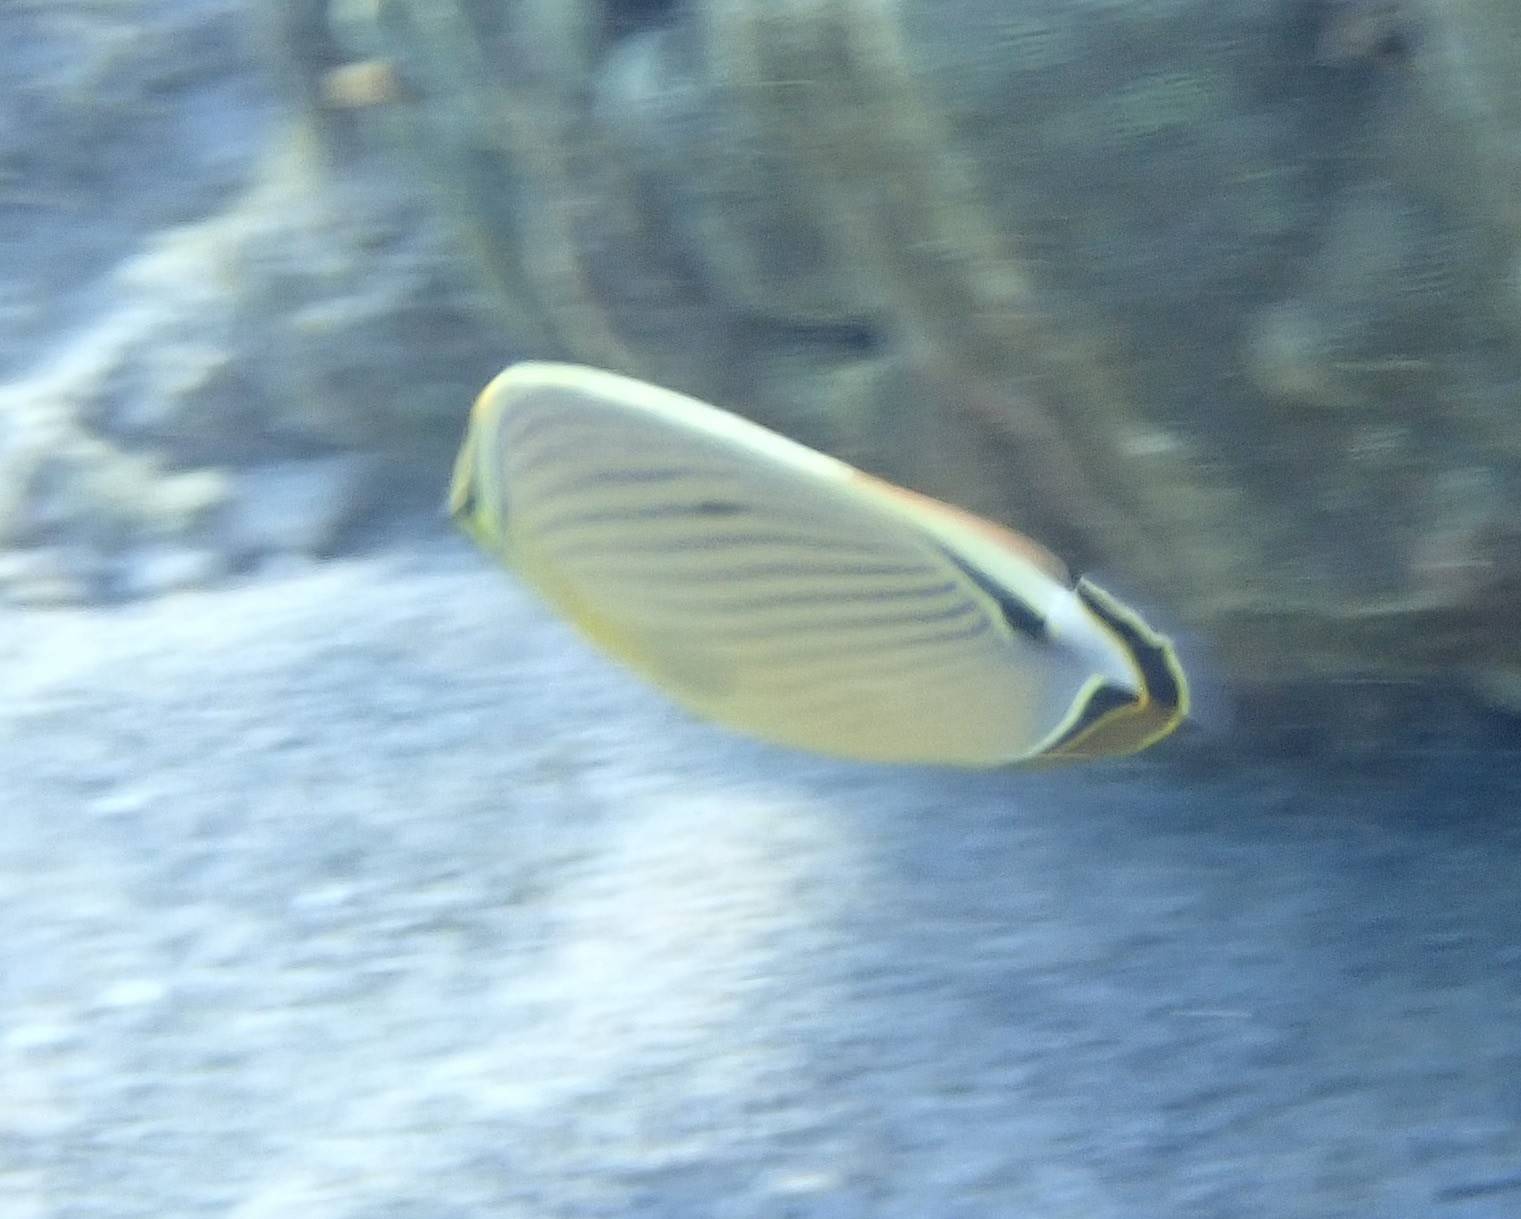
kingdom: Animalia
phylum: Chordata
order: Perciformes
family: Chaetodontidae
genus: Chaetodon
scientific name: Chaetodon lunulatus
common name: Redfin butterflyfish
